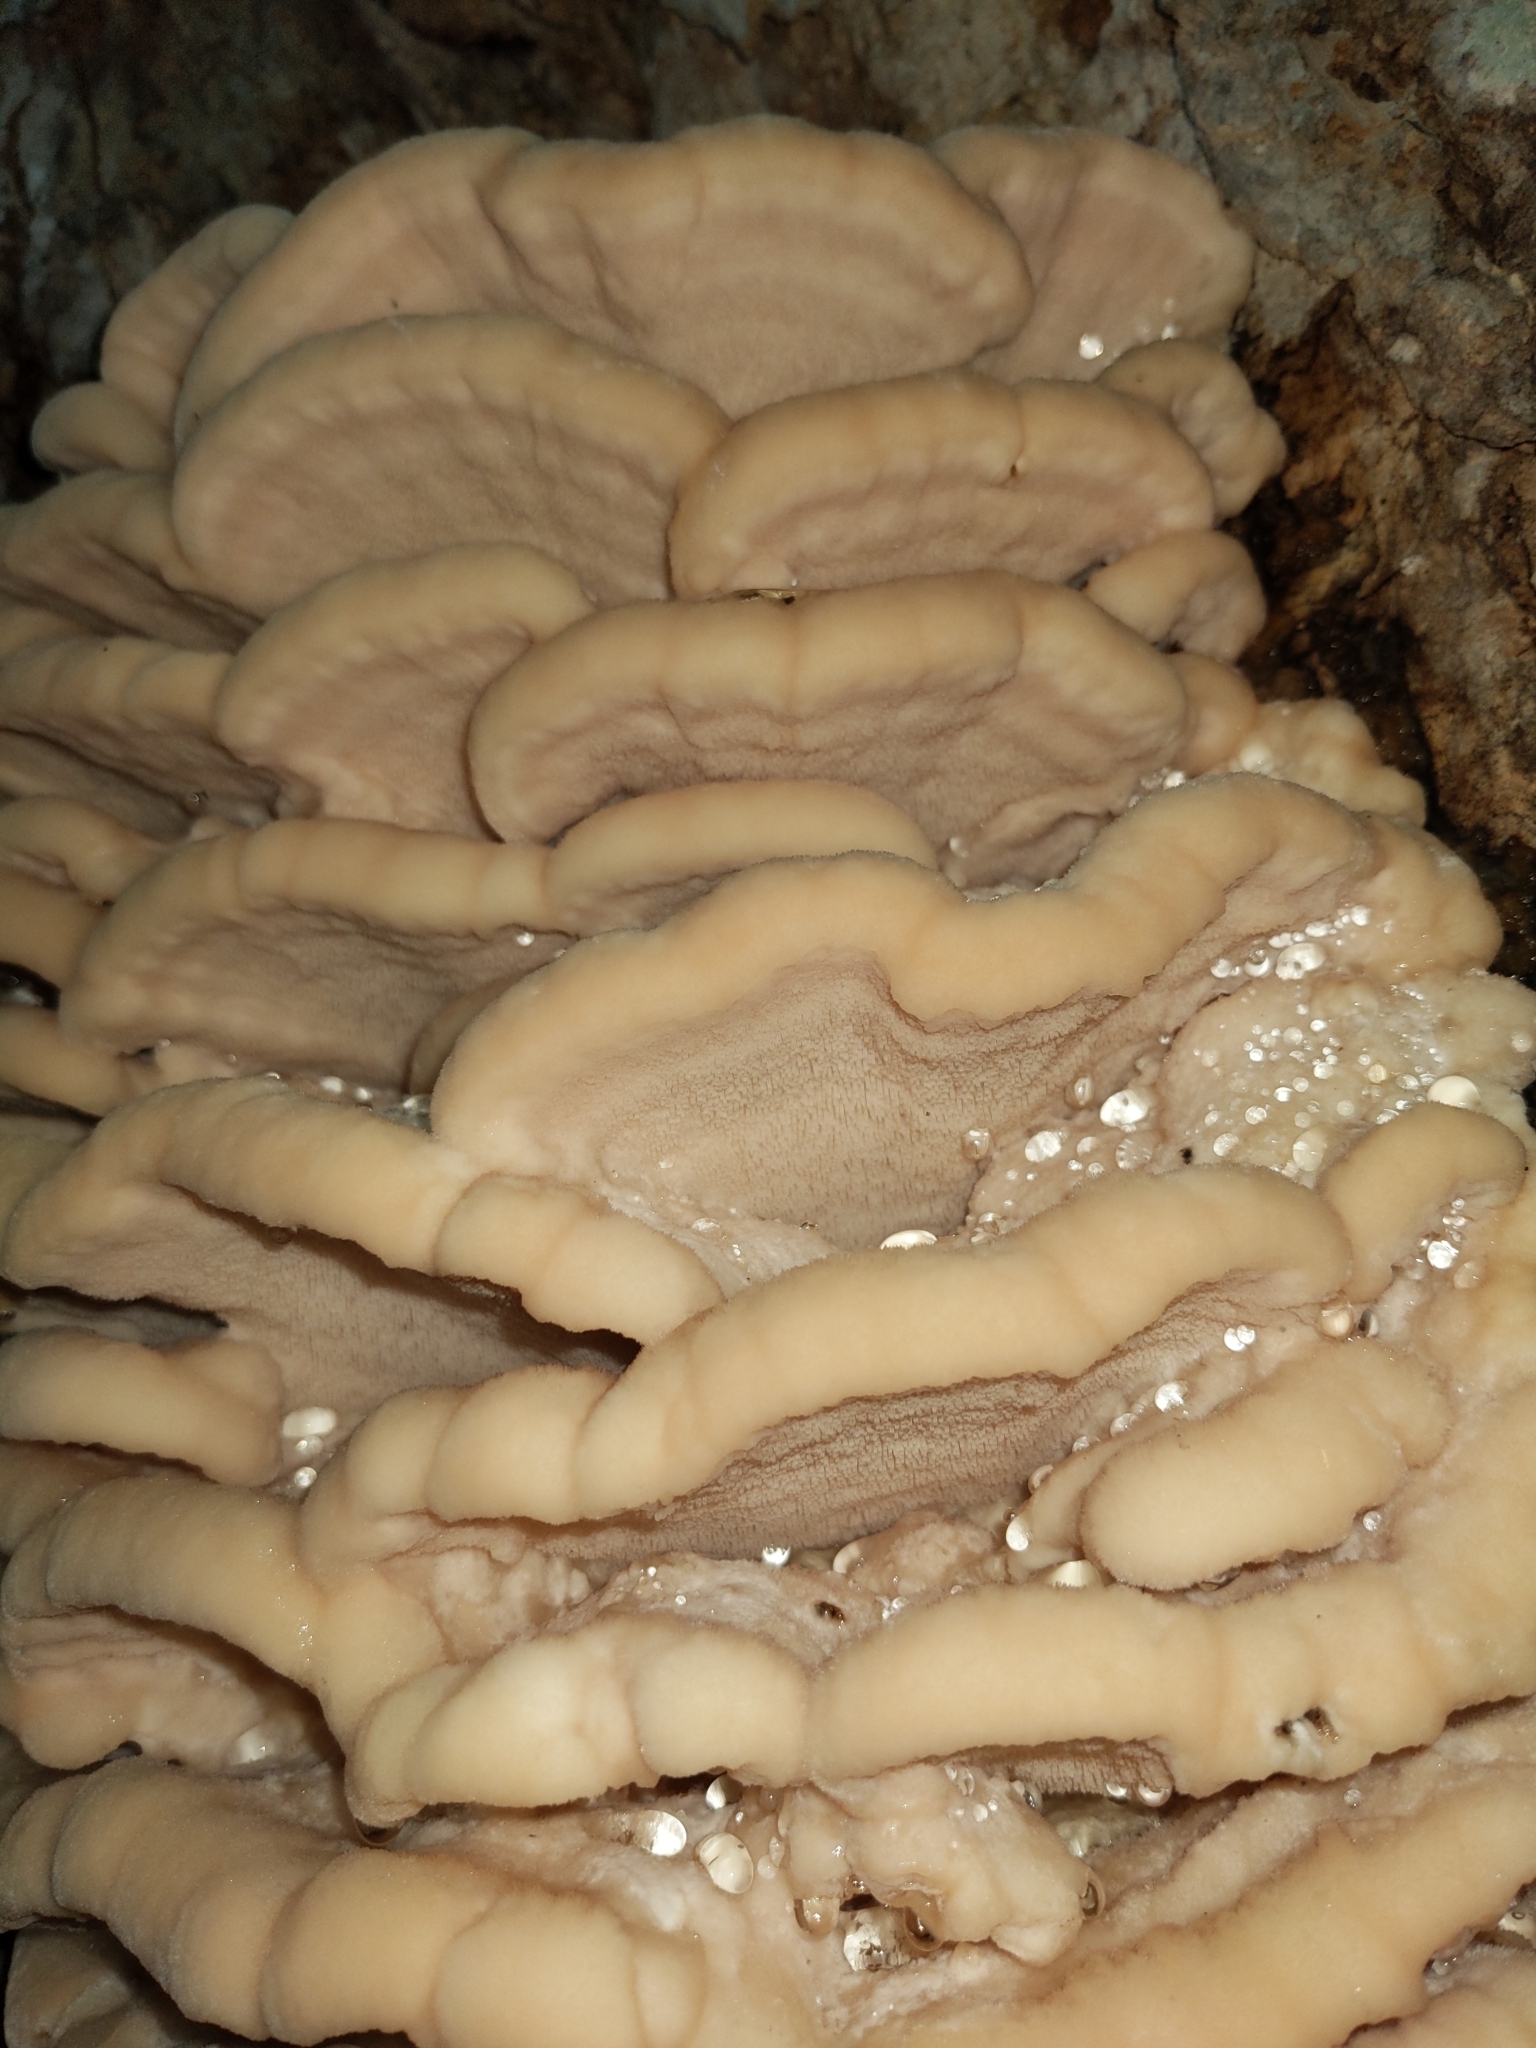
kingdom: Fungi
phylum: Basidiomycota
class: Agaricomycetes
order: Polyporales
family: Meruliaceae
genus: Climacodon
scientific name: Climacodon septentrionalis
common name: Northern tooth
